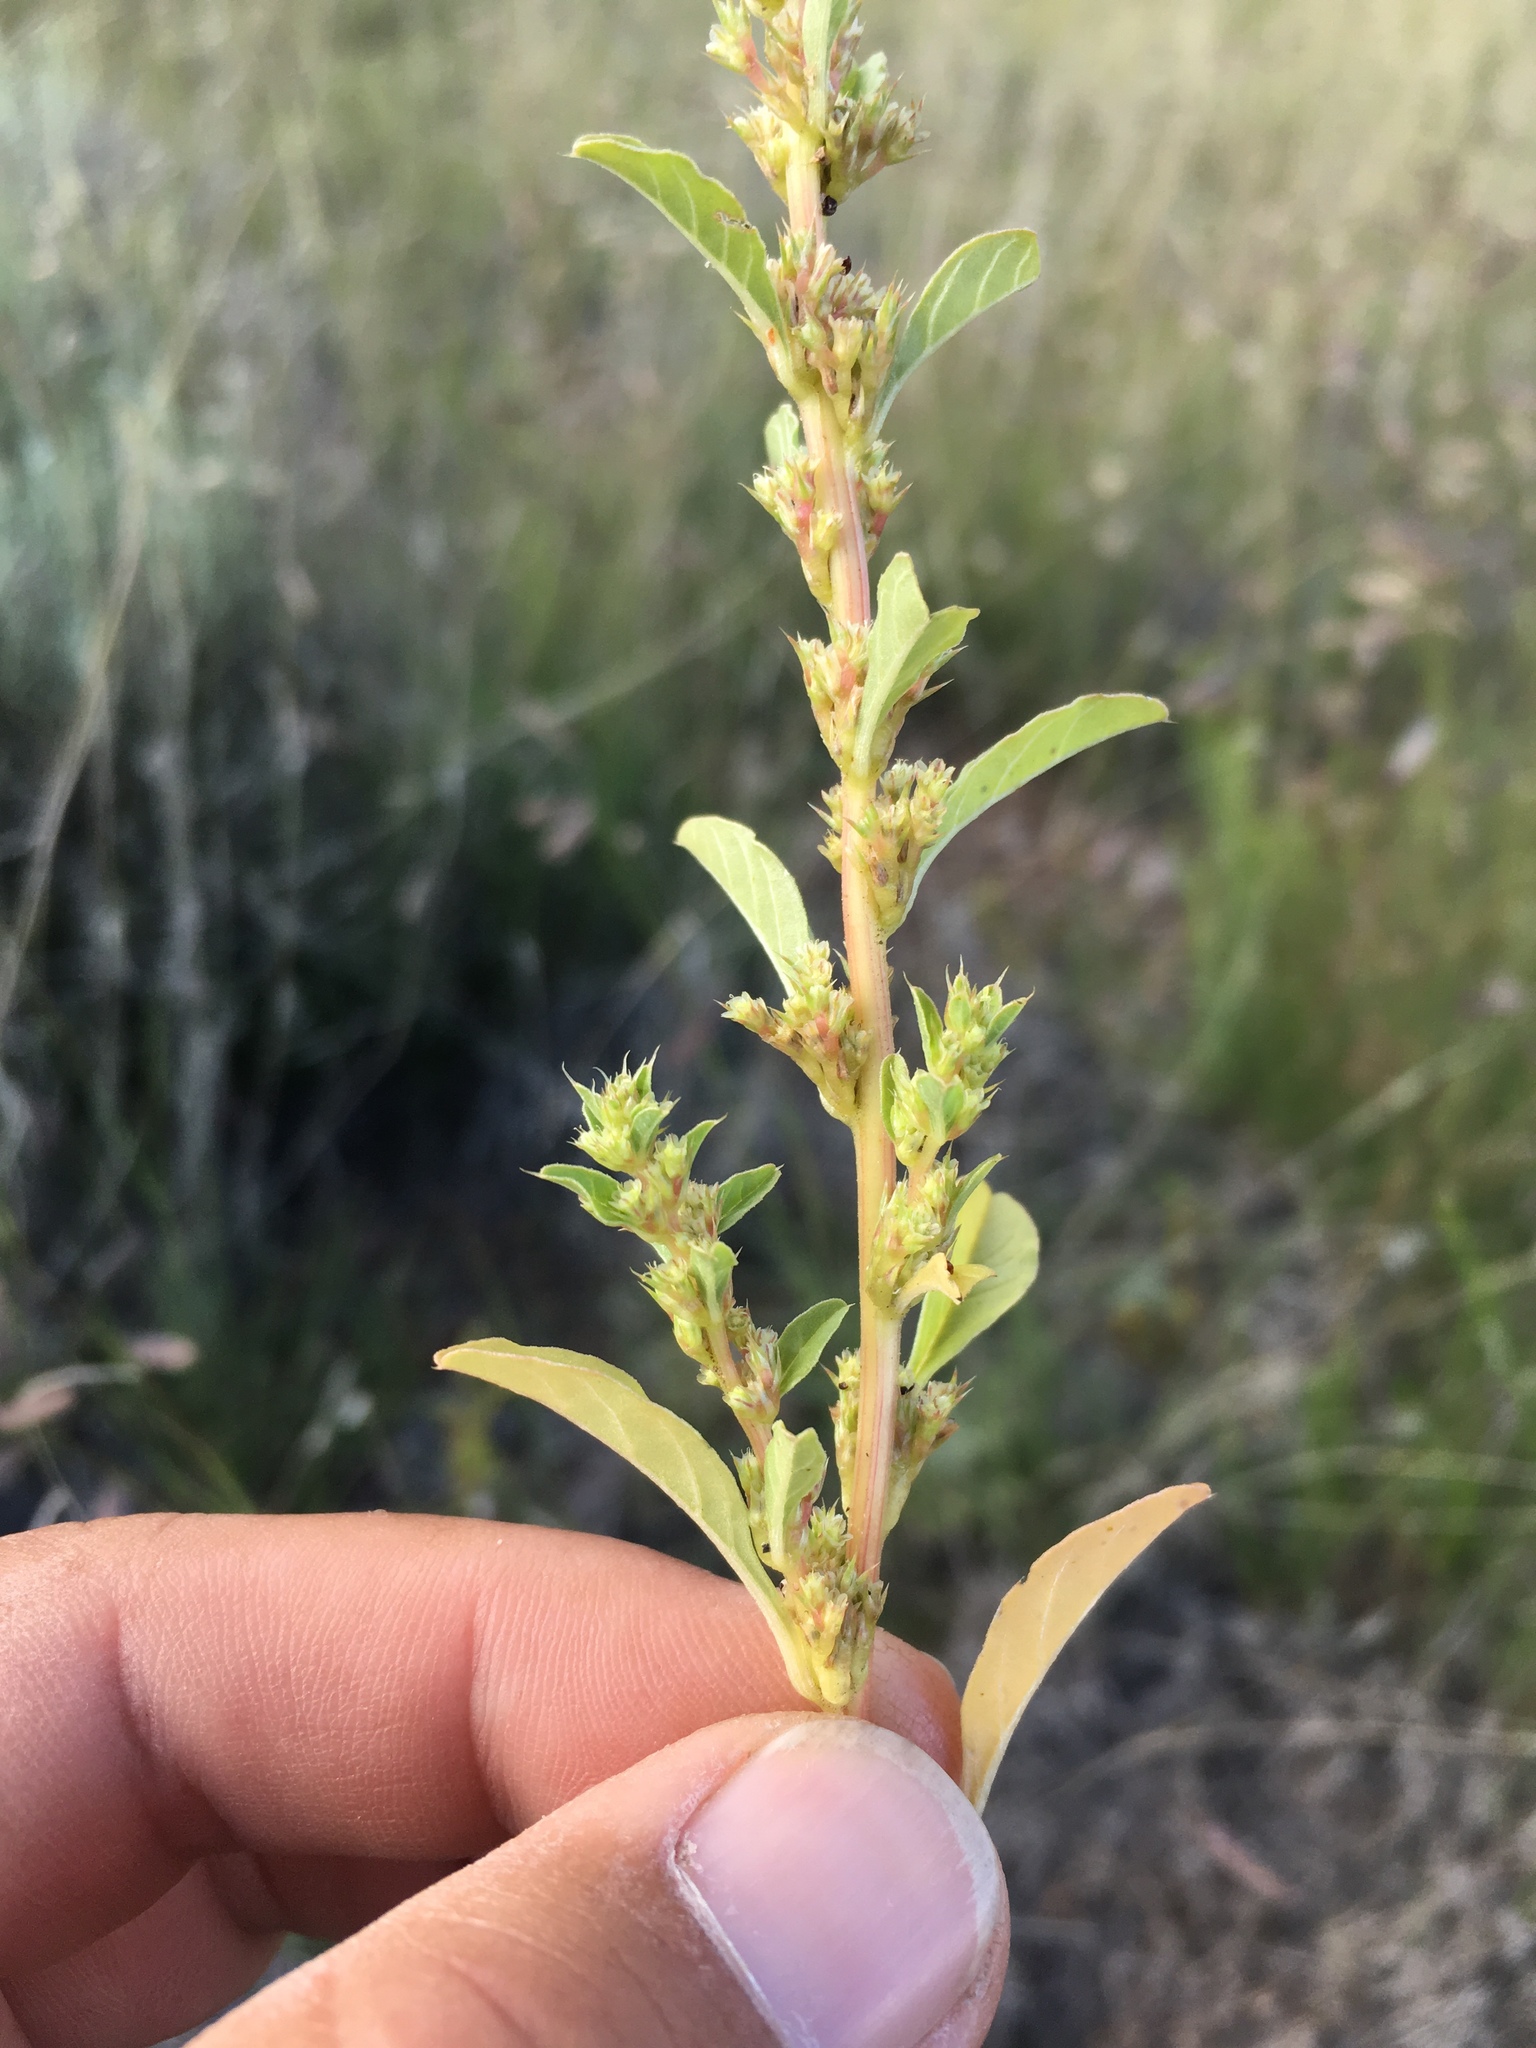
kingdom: Plantae
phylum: Tracheophyta
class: Magnoliopsida
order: Caryophyllales
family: Amaranthaceae
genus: Amaranthus
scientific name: Amaranthus torreyi
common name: Bigelow's amaranth
